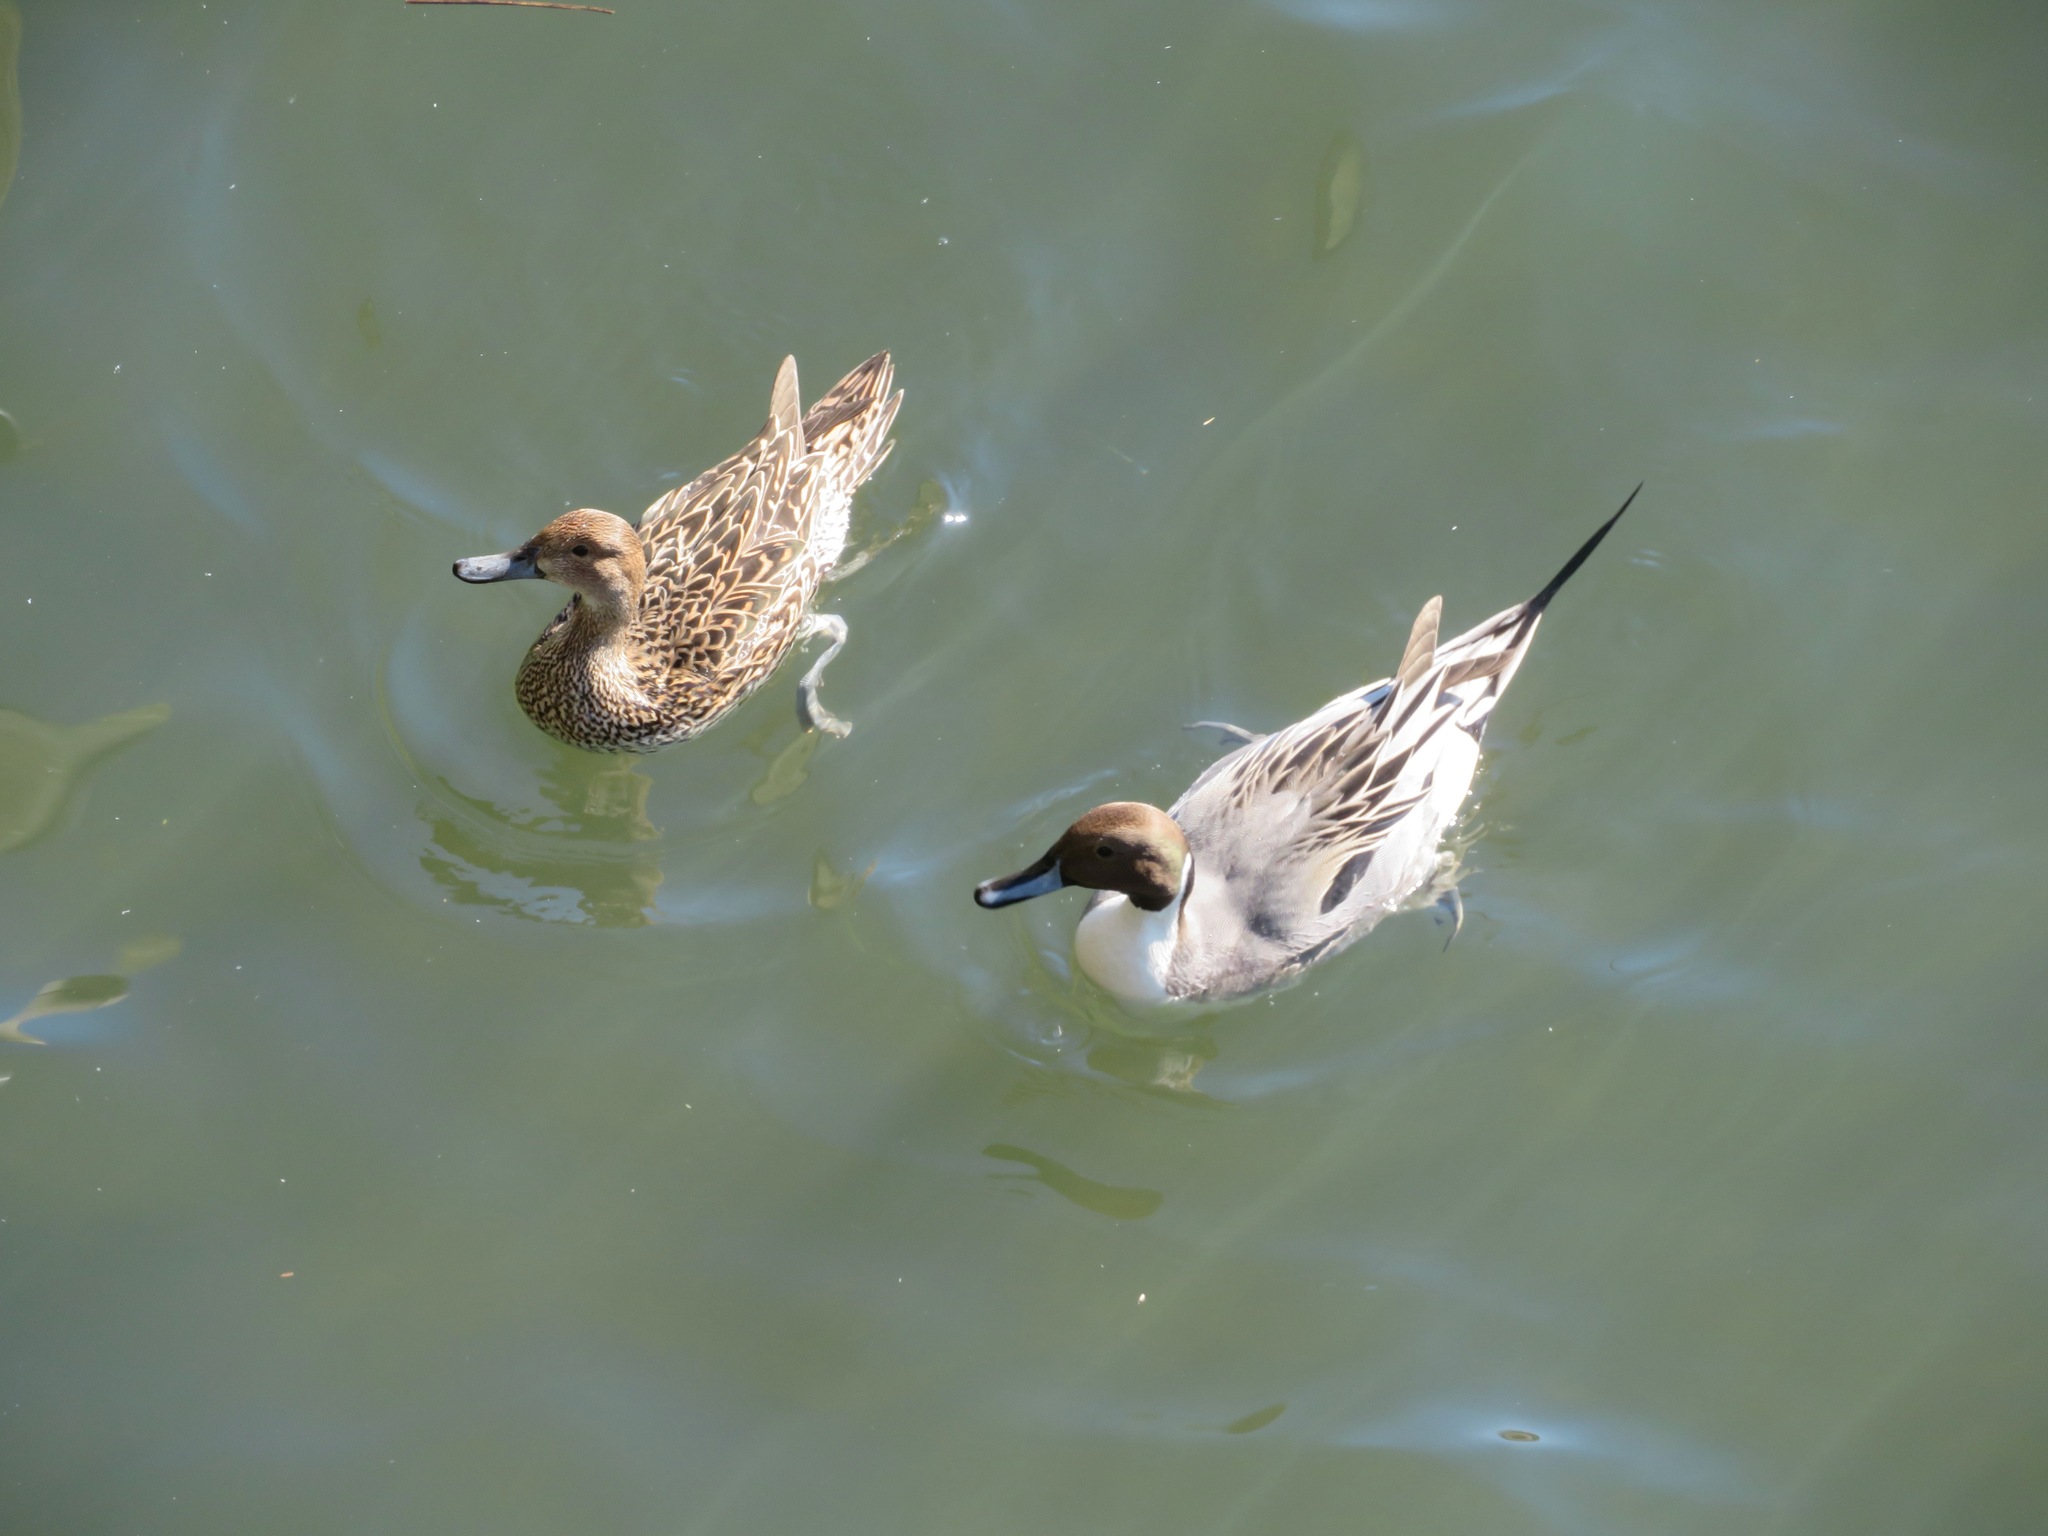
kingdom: Animalia
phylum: Chordata
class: Aves
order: Anseriformes
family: Anatidae
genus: Anas
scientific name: Anas acuta
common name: Northern pintail
